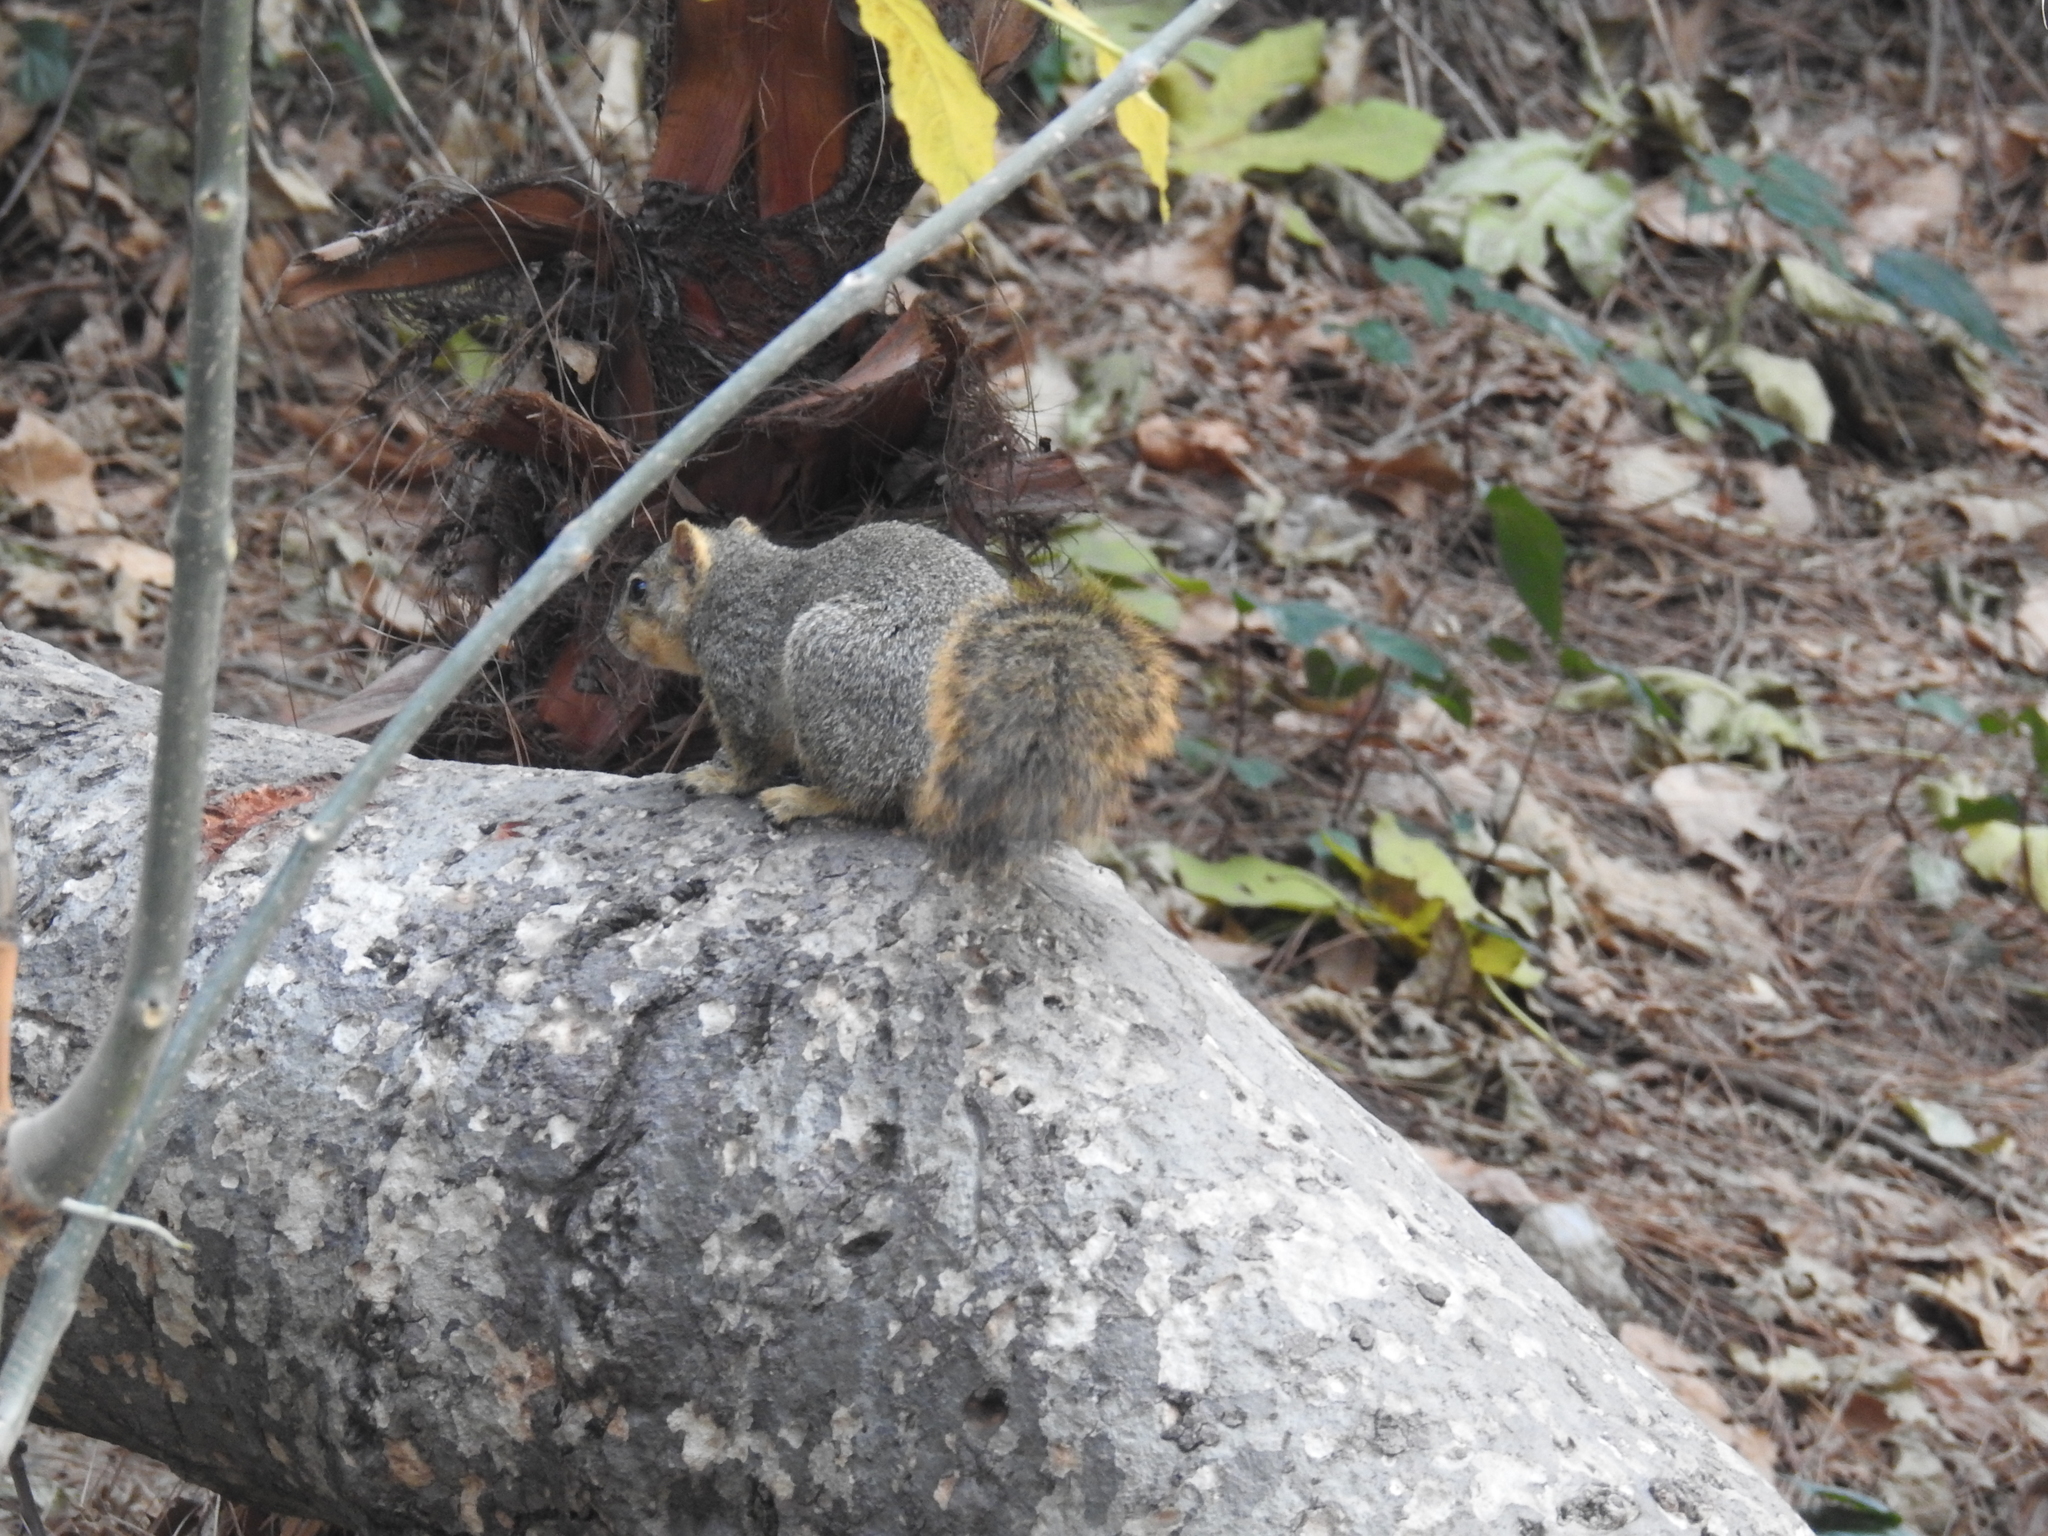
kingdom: Animalia
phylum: Chordata
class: Mammalia
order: Rodentia
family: Sciuridae
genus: Sciurus
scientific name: Sciurus niger
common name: Fox squirrel
